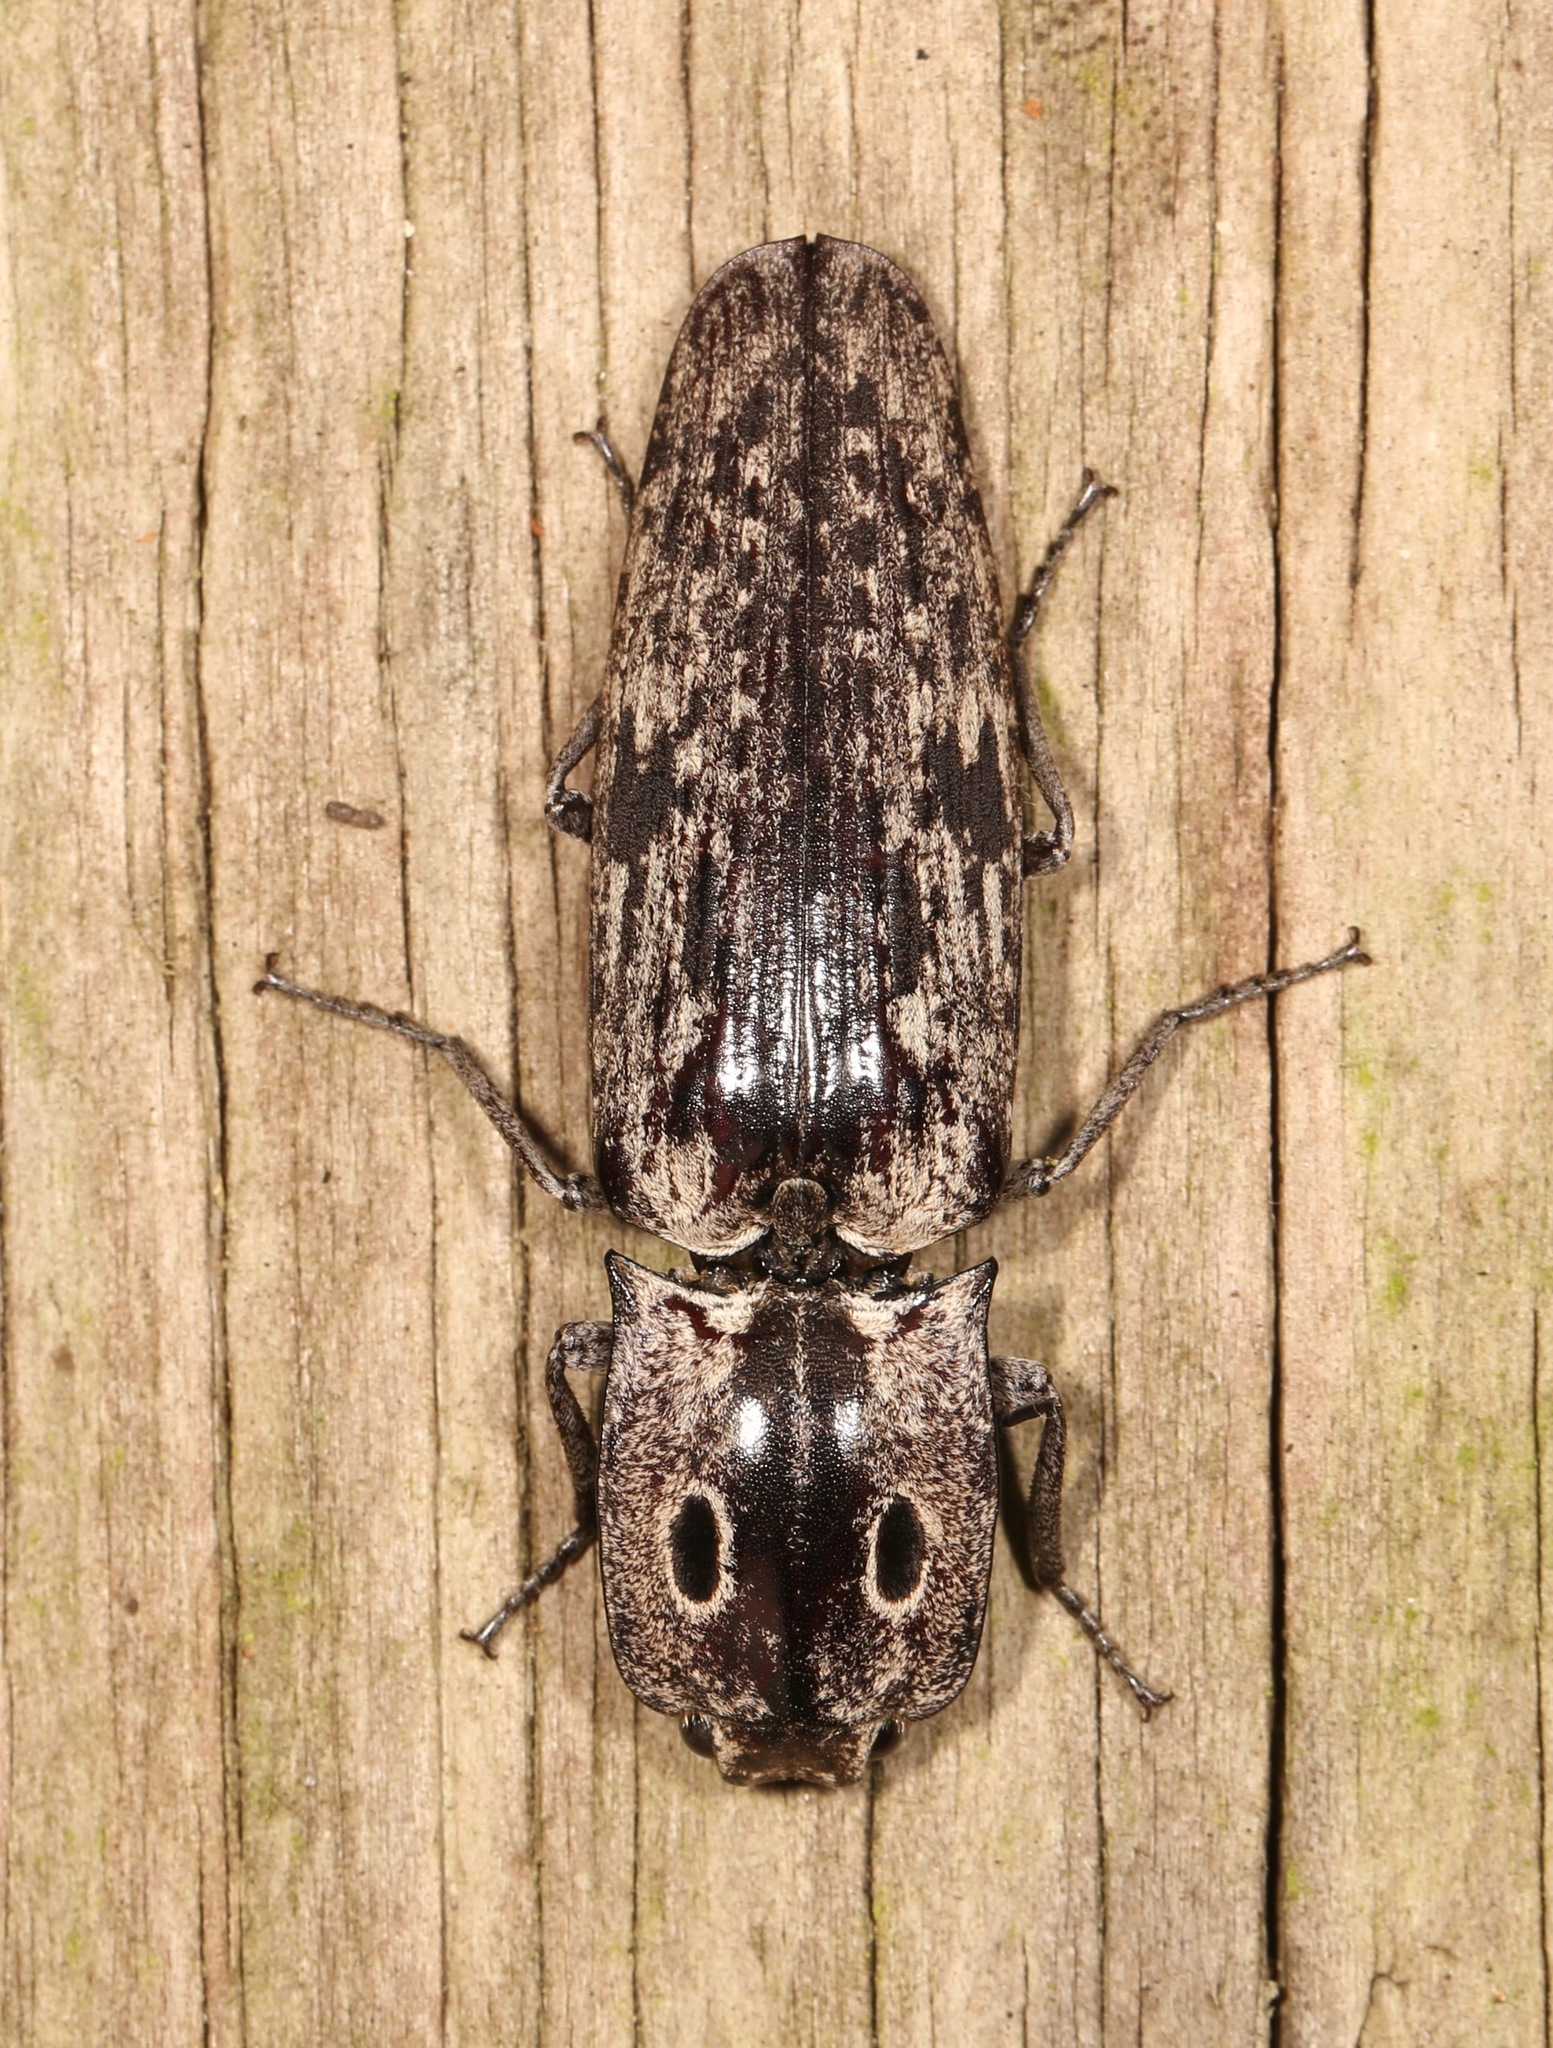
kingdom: Animalia
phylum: Arthropoda
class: Insecta
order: Coleoptera
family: Elateridae
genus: Alaus
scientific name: Alaus myops
